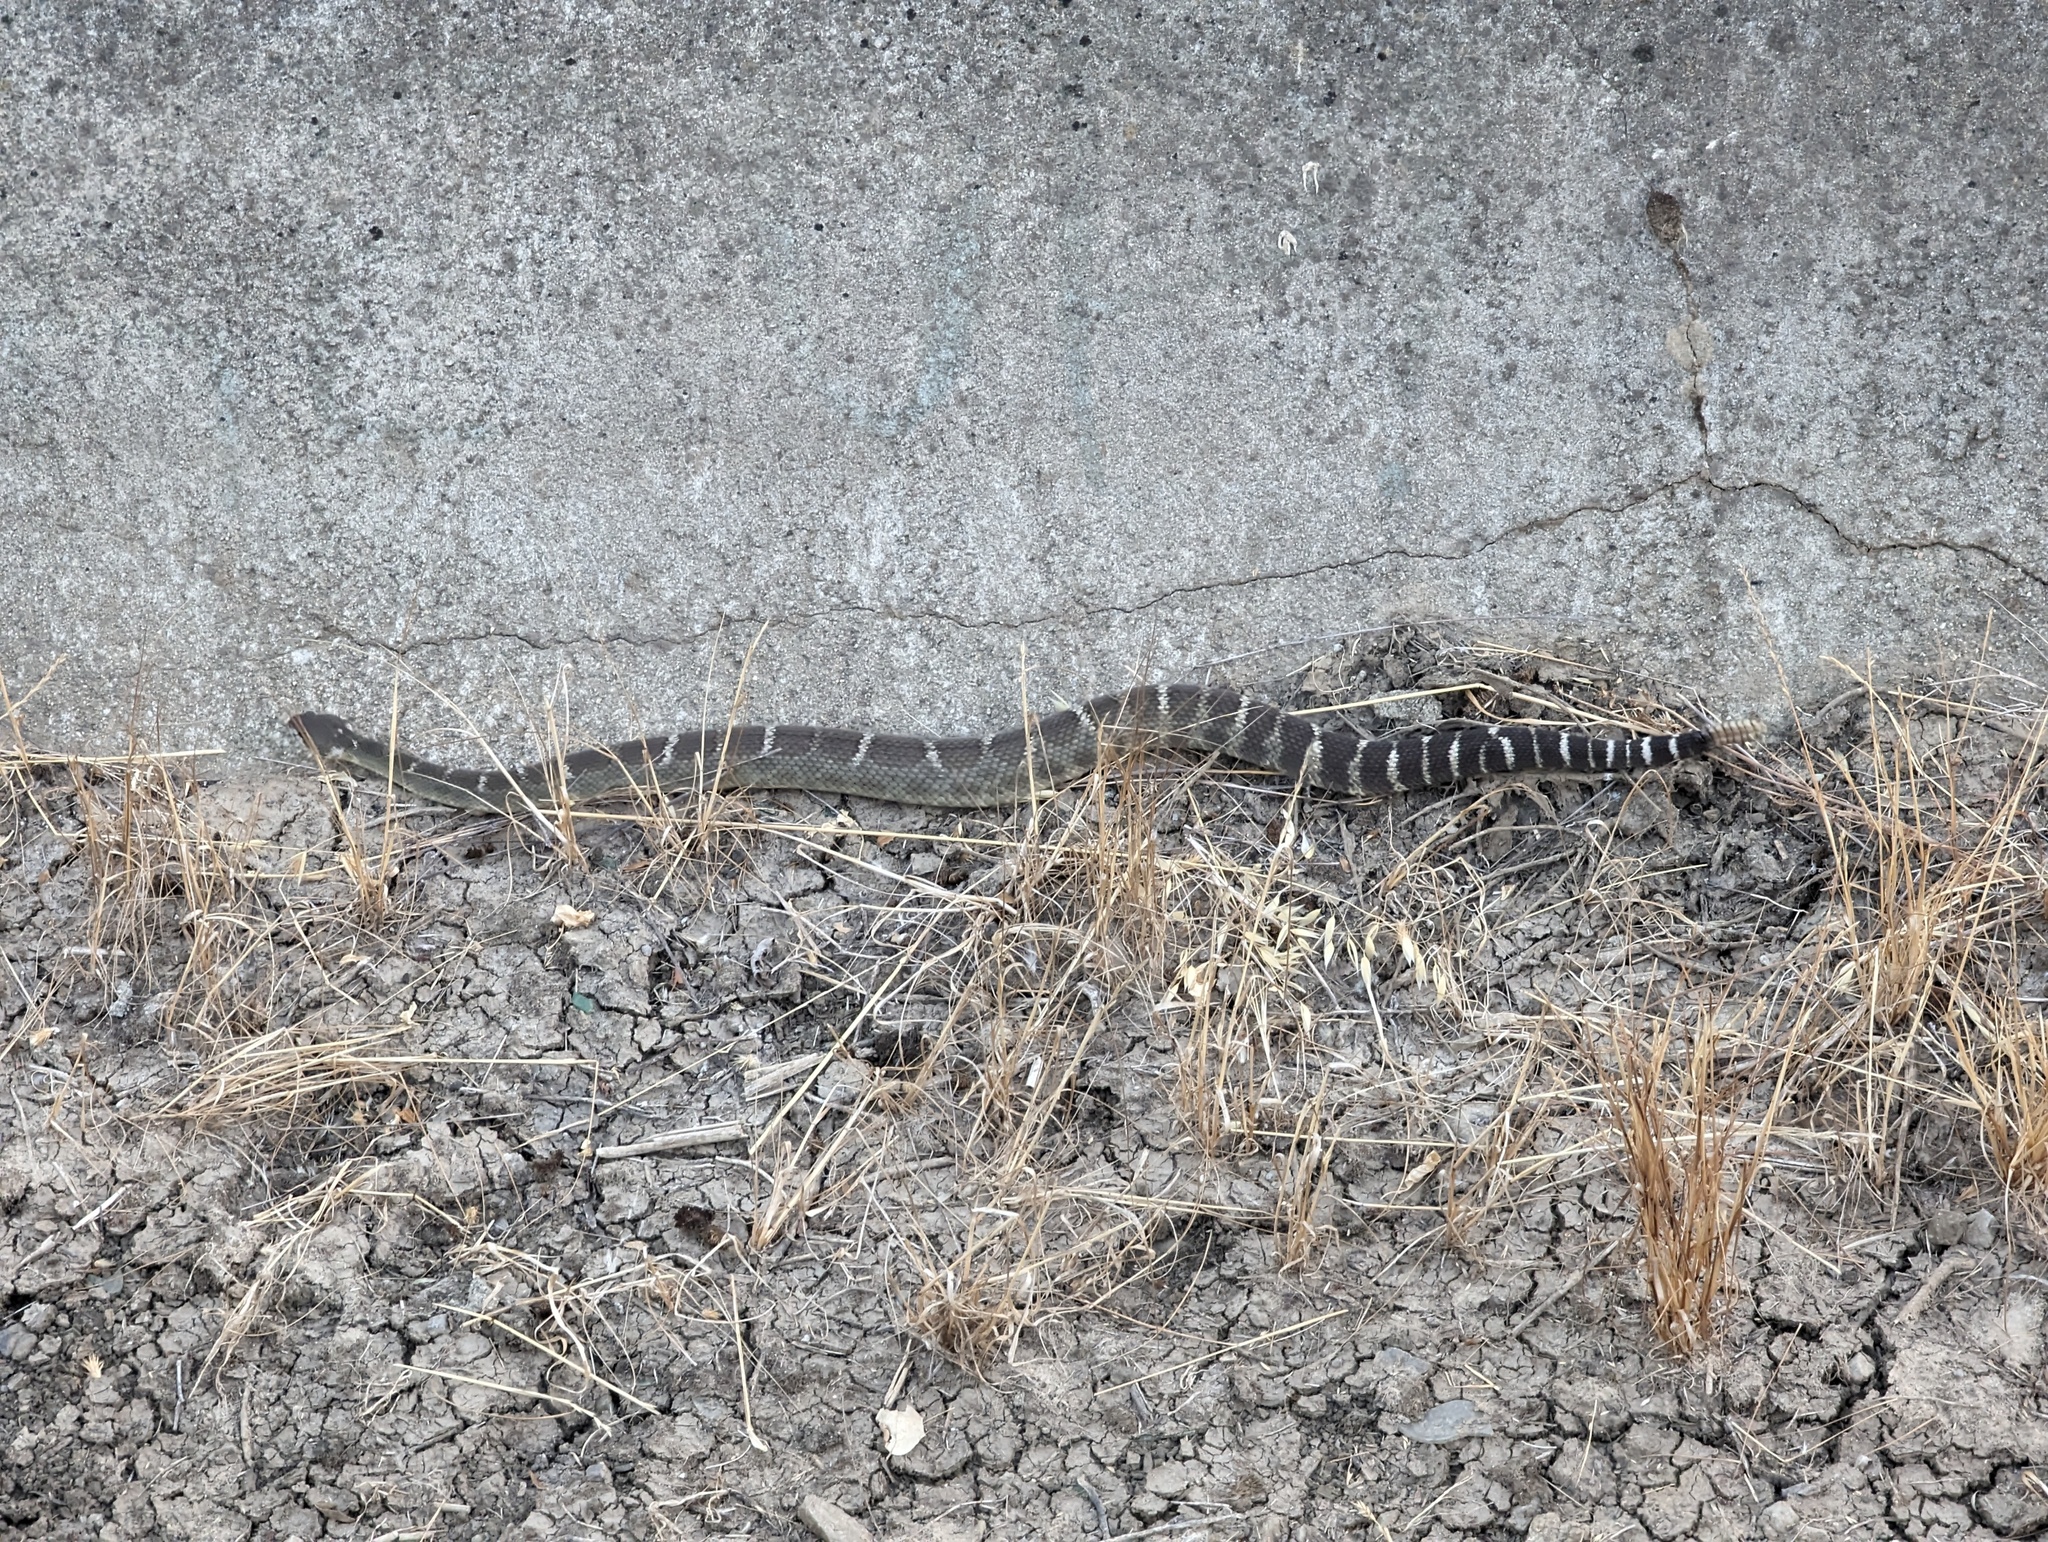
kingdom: Animalia
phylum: Chordata
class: Squamata
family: Viperidae
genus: Crotalus
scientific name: Crotalus oreganus
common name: Abyssus
